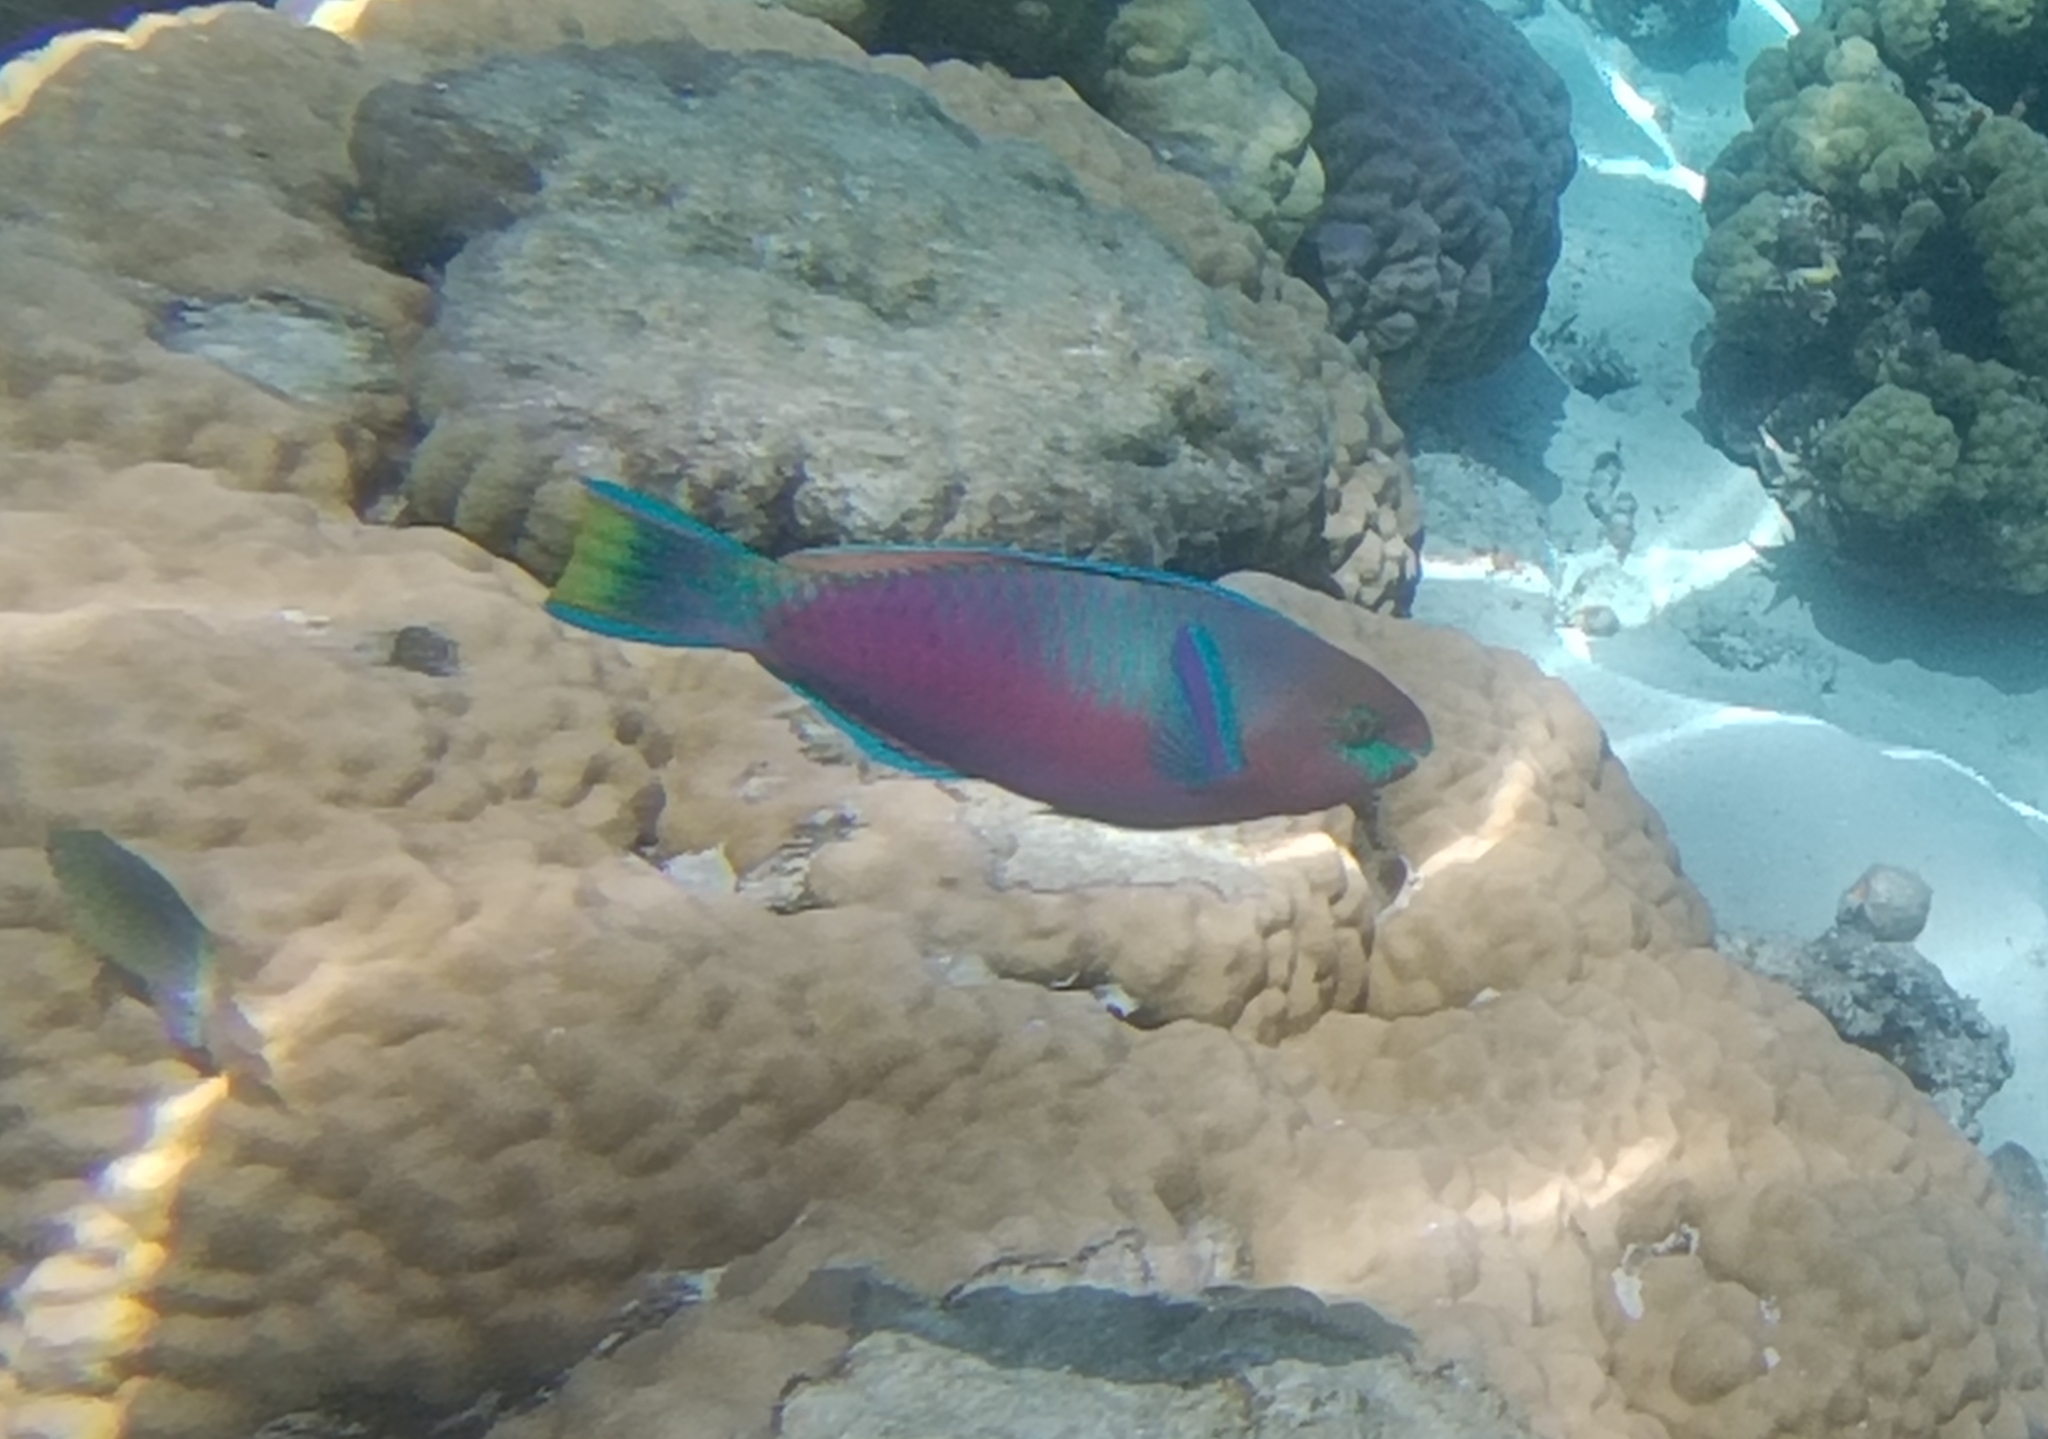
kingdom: Animalia
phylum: Chordata
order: Perciformes
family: Scaridae
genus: Scarus
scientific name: Scarus quoyi
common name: Quoy's parrotfish
